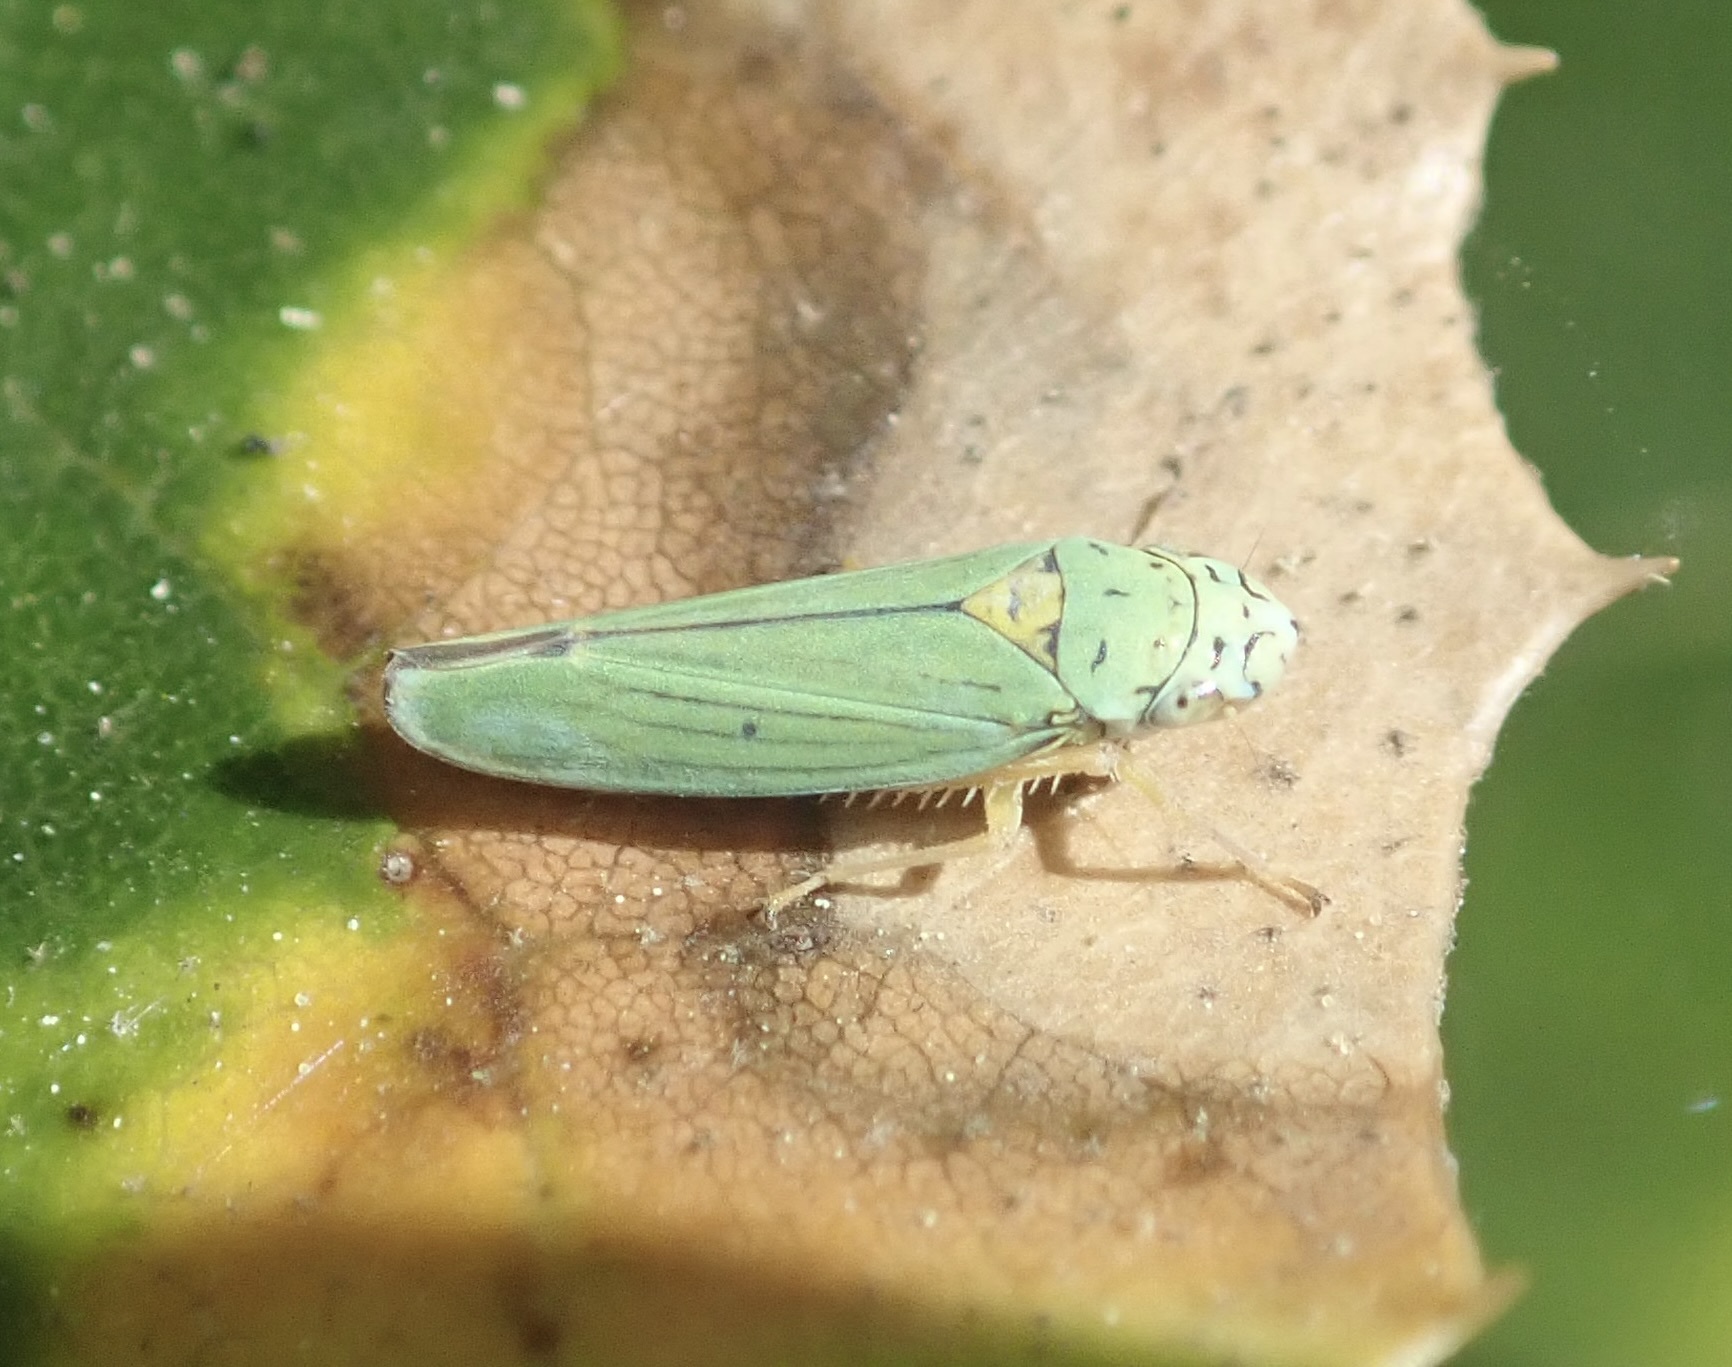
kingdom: Animalia
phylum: Arthropoda
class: Insecta
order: Hemiptera
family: Cicadellidae
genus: Graphocephala
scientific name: Graphocephala atropunctata
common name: Blue-green sharpshooter
